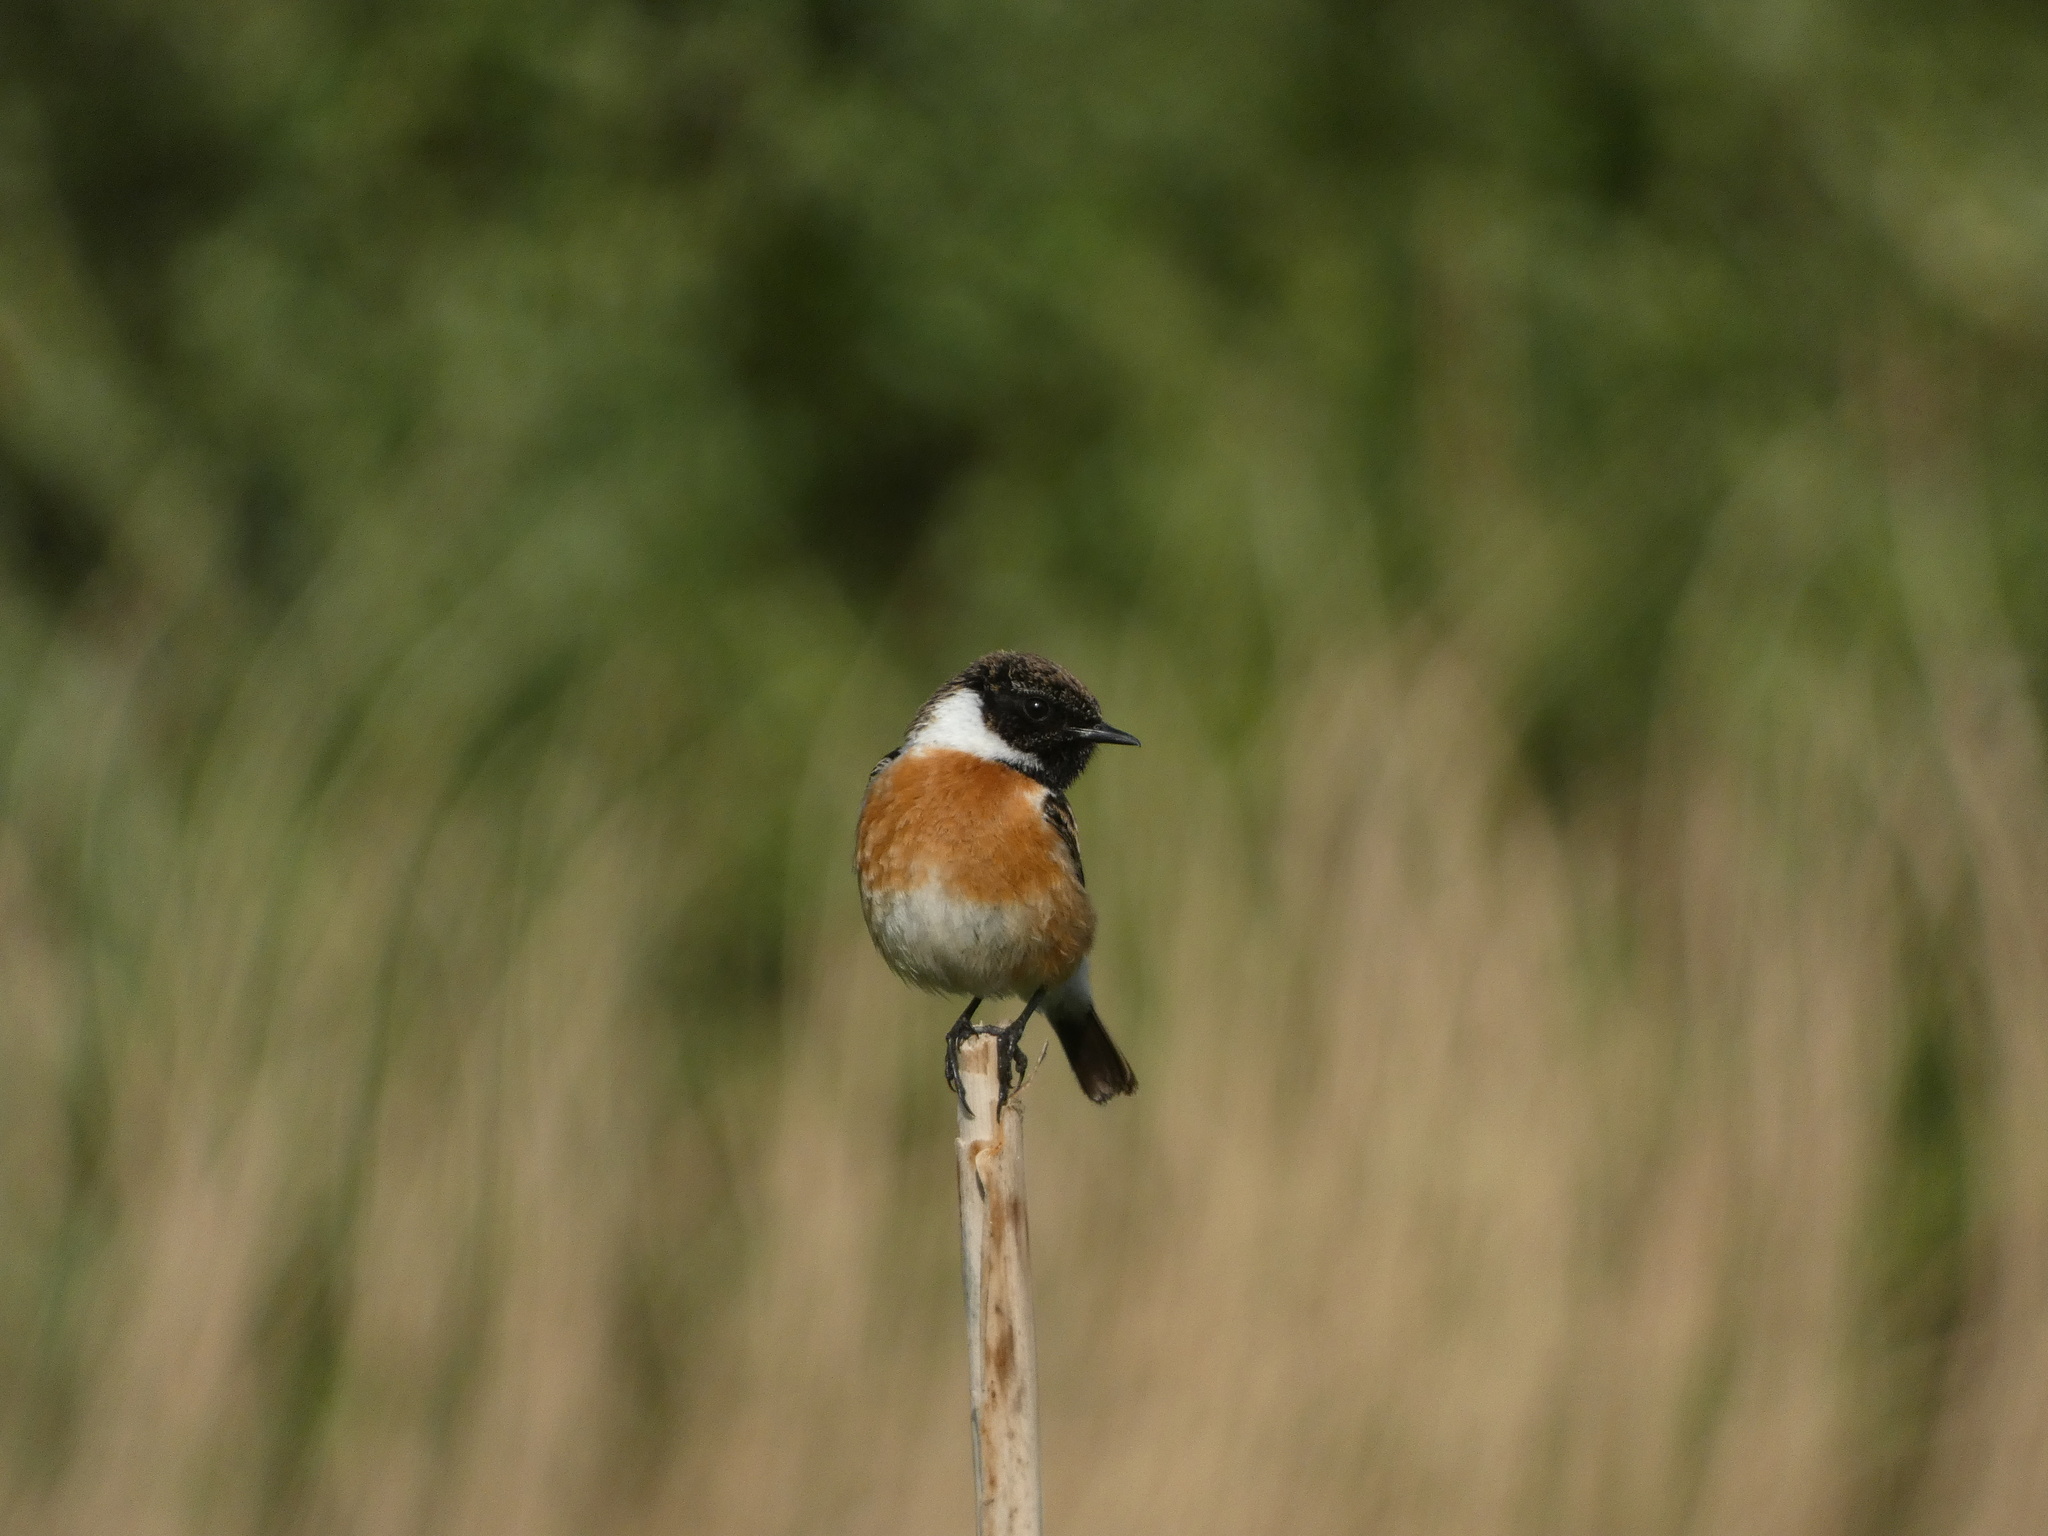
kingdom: Animalia
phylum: Chordata
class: Aves
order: Passeriformes
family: Muscicapidae
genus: Saxicola
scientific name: Saxicola rubicola
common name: European stonechat
